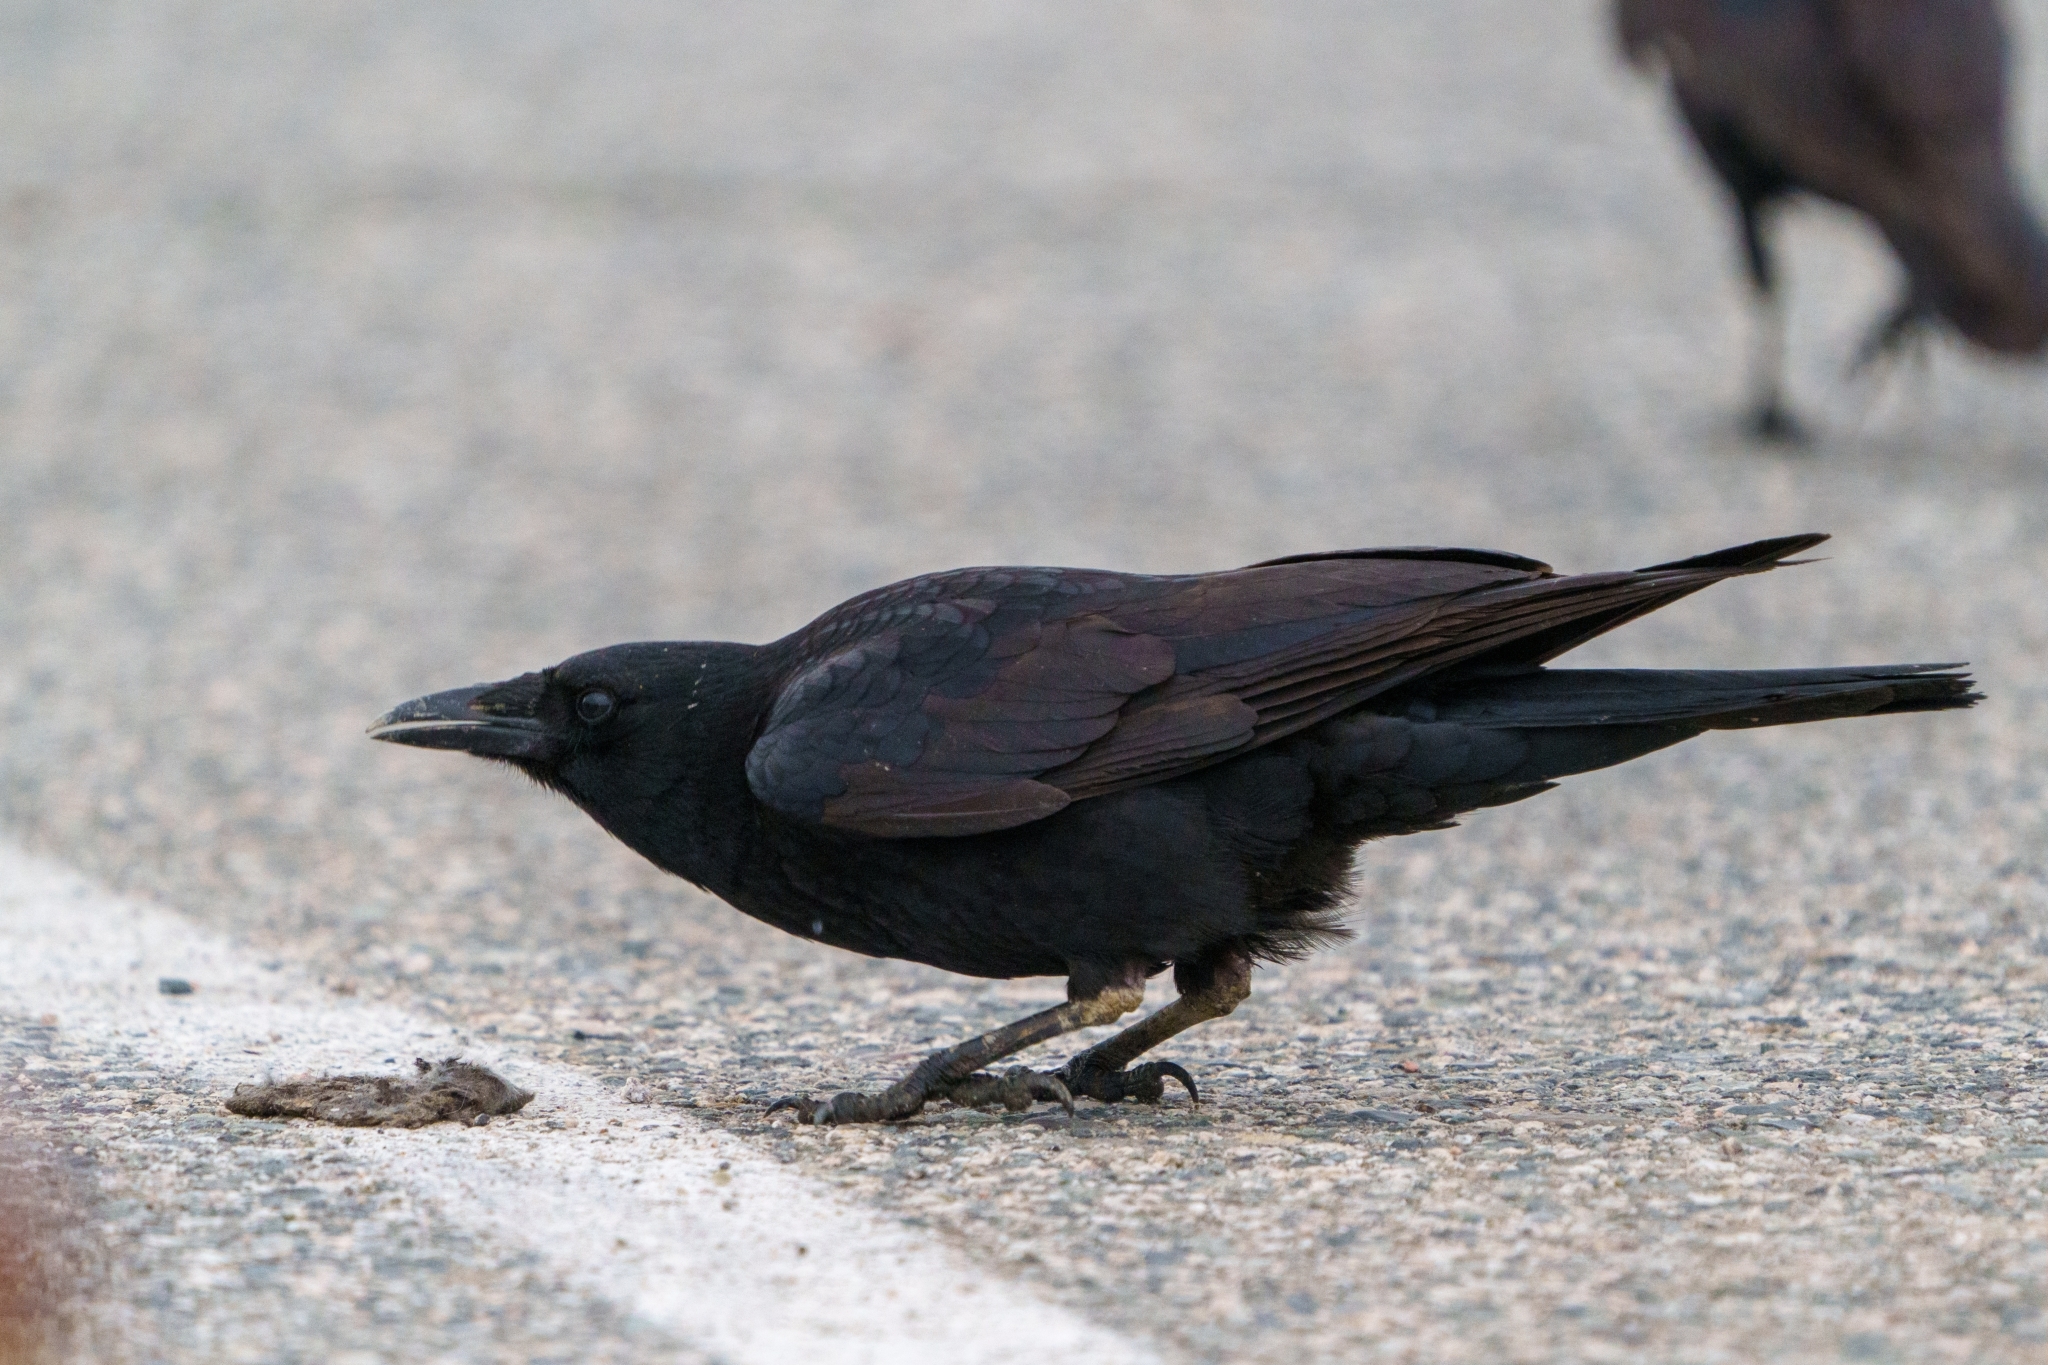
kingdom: Animalia
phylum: Chordata
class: Aves
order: Passeriformes
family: Corvidae
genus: Corvus
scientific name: Corvus brachyrhynchos
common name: American crow
